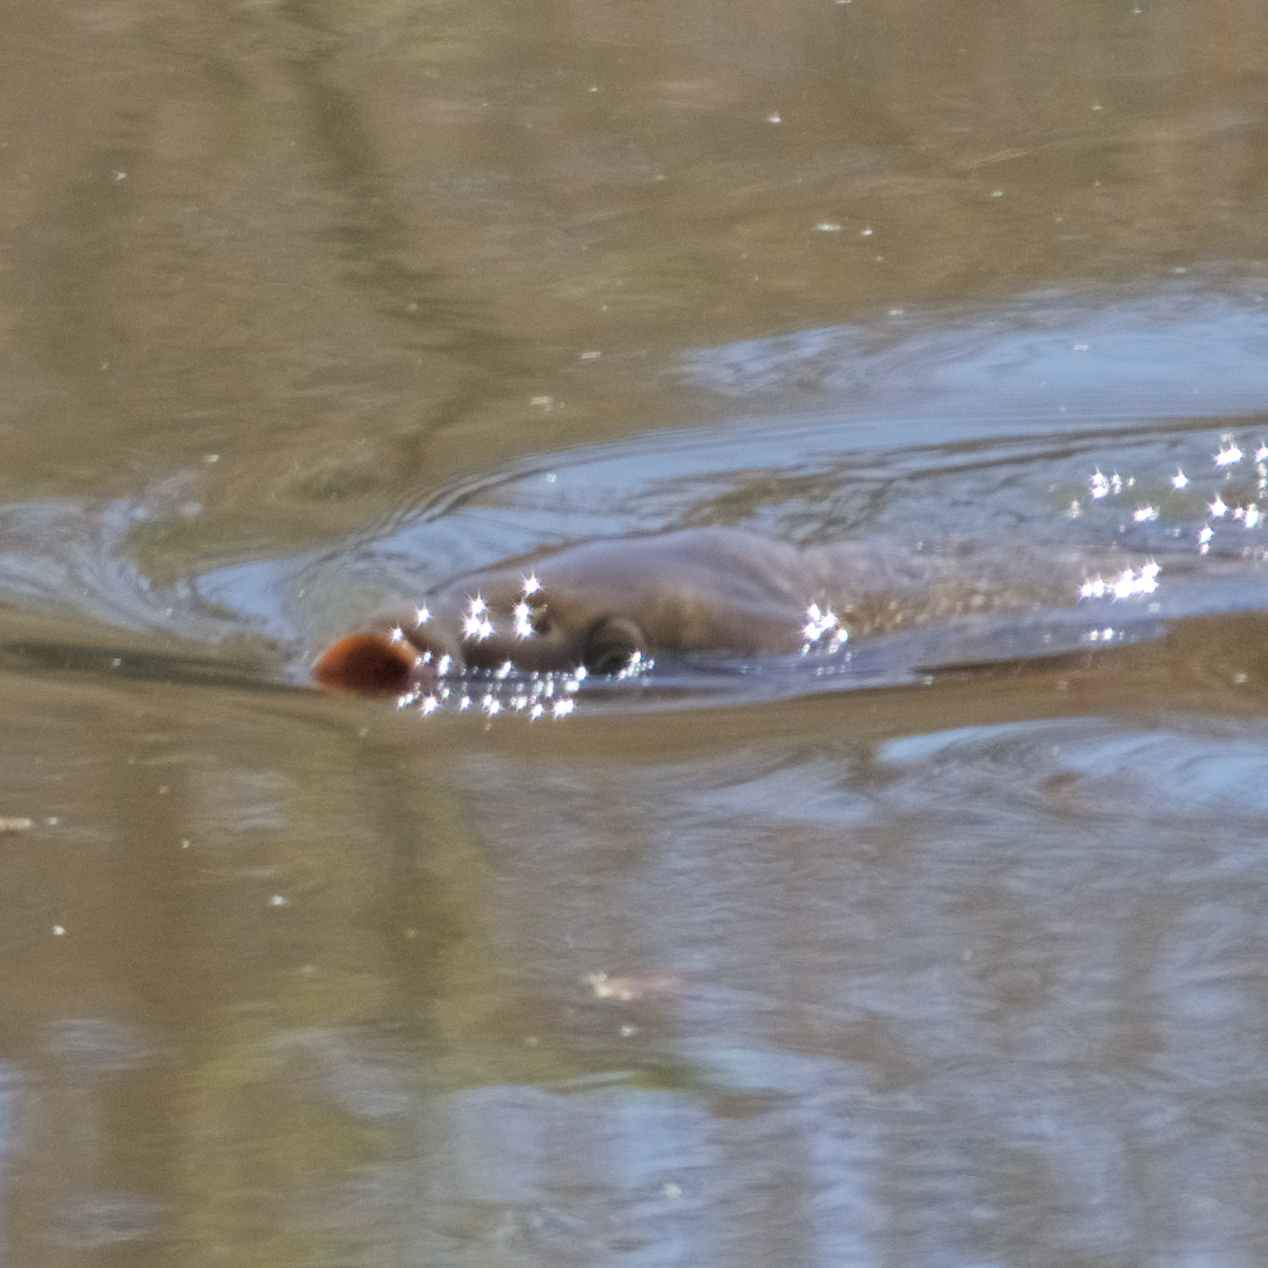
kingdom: Animalia
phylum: Chordata
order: Cypriniformes
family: Cyprinidae
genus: Cyprinus
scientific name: Cyprinus carpio
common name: Common carp
